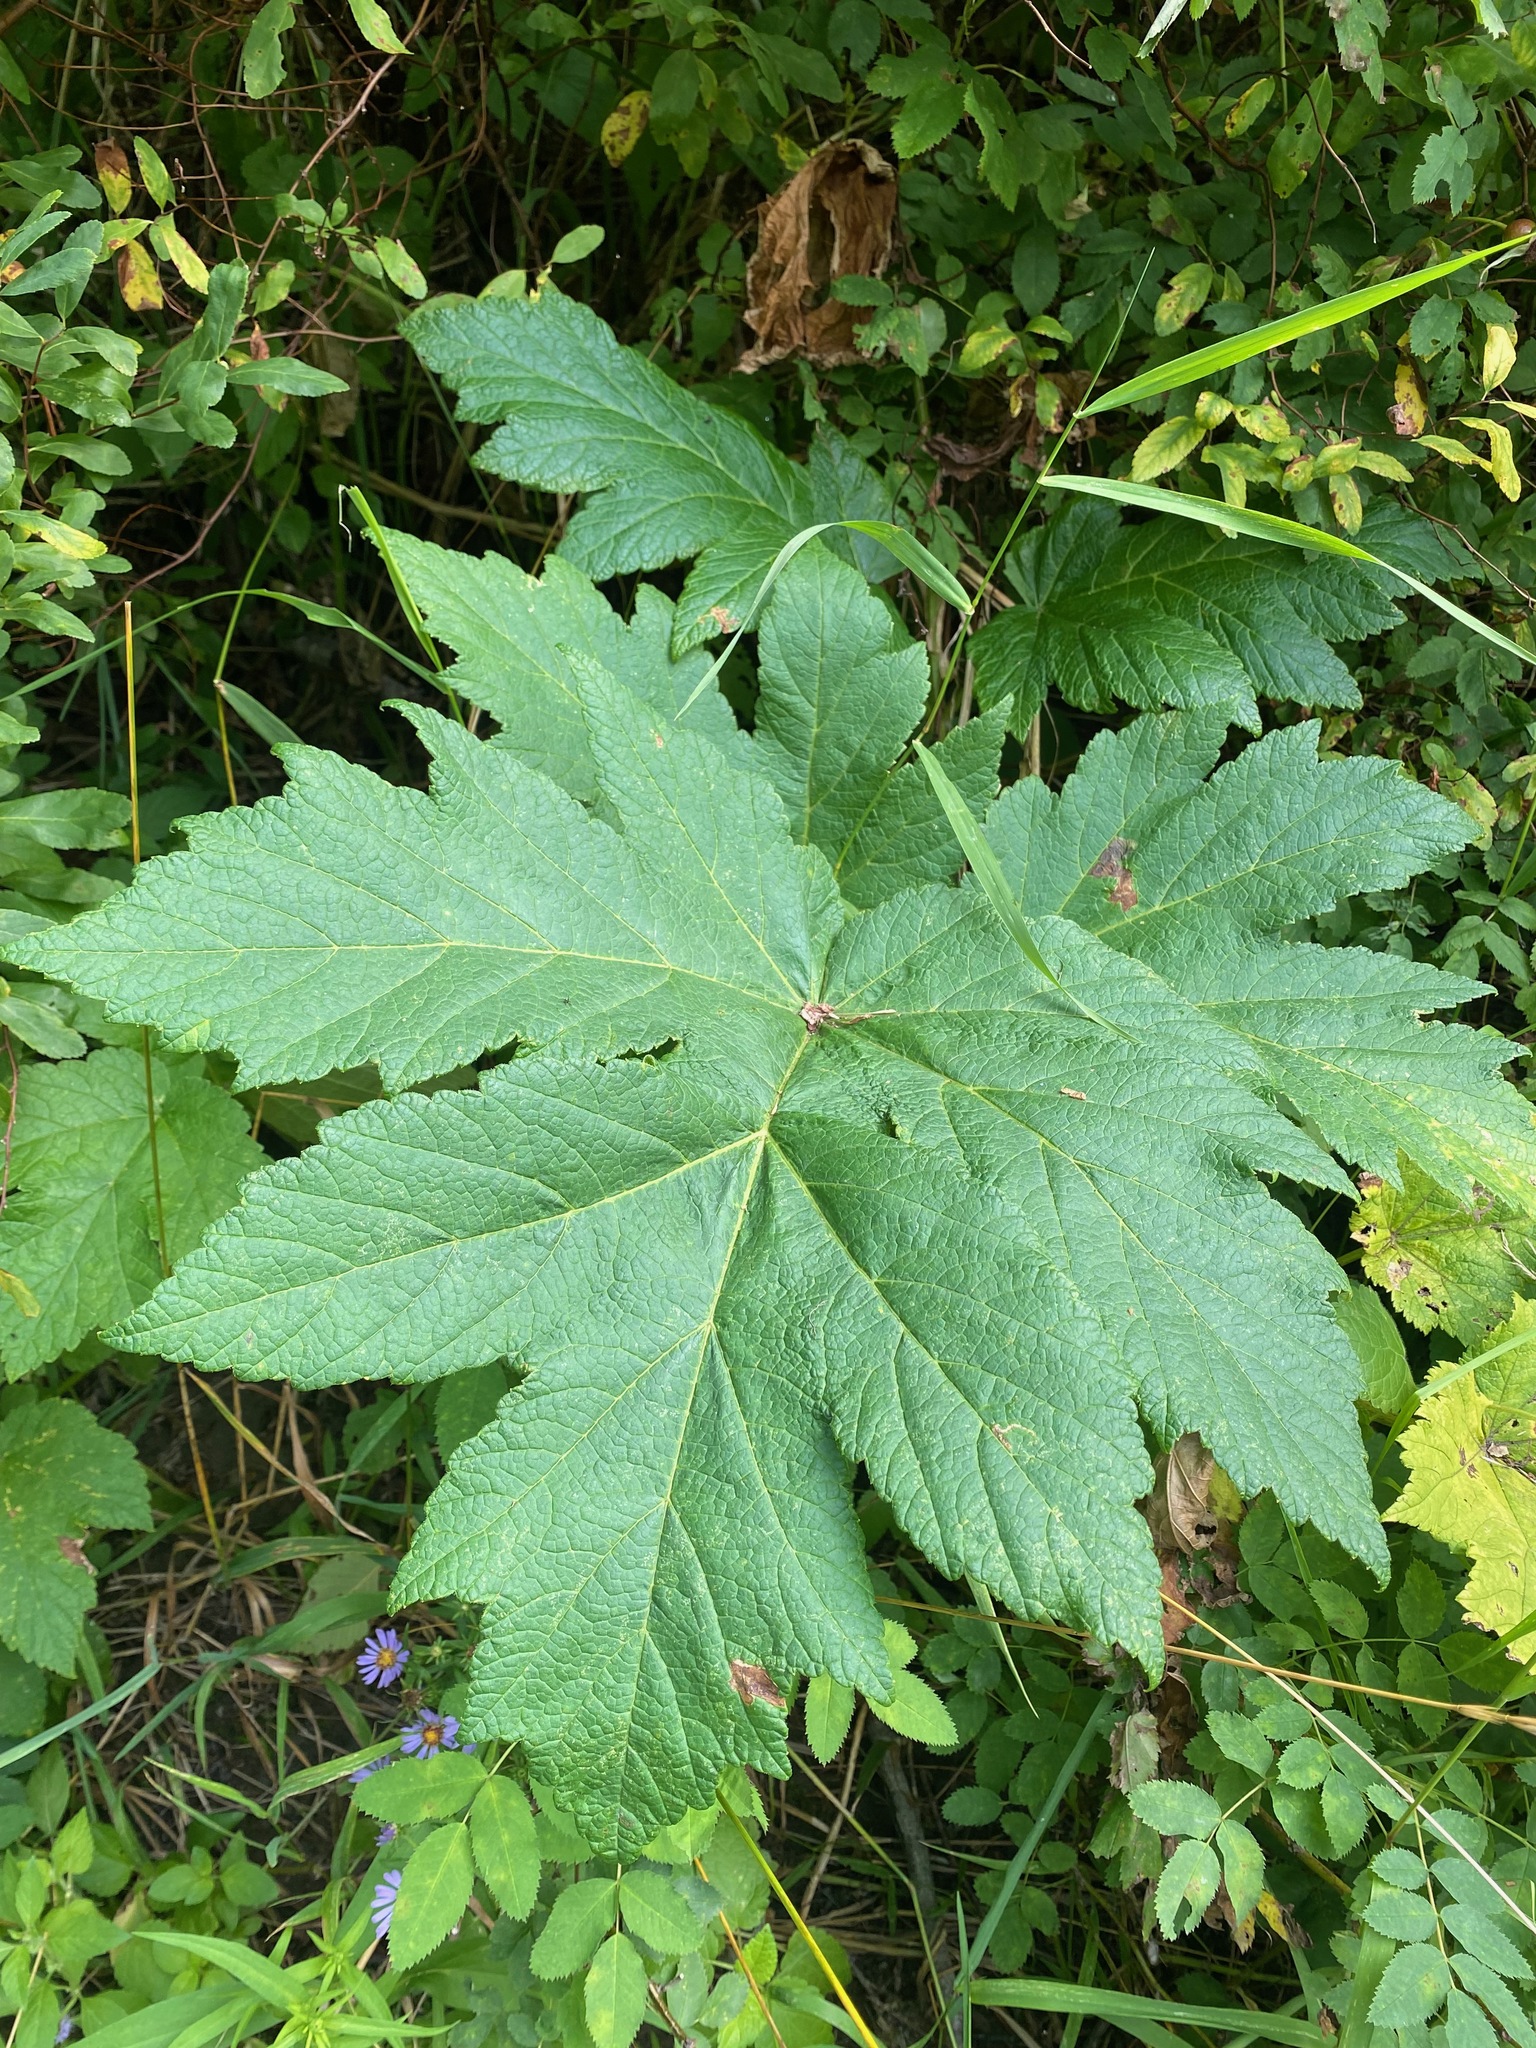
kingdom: Plantae
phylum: Tracheophyta
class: Magnoliopsida
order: Apiales
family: Apiaceae
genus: Heracleum
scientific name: Heracleum maximum
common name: American cow parsnip
